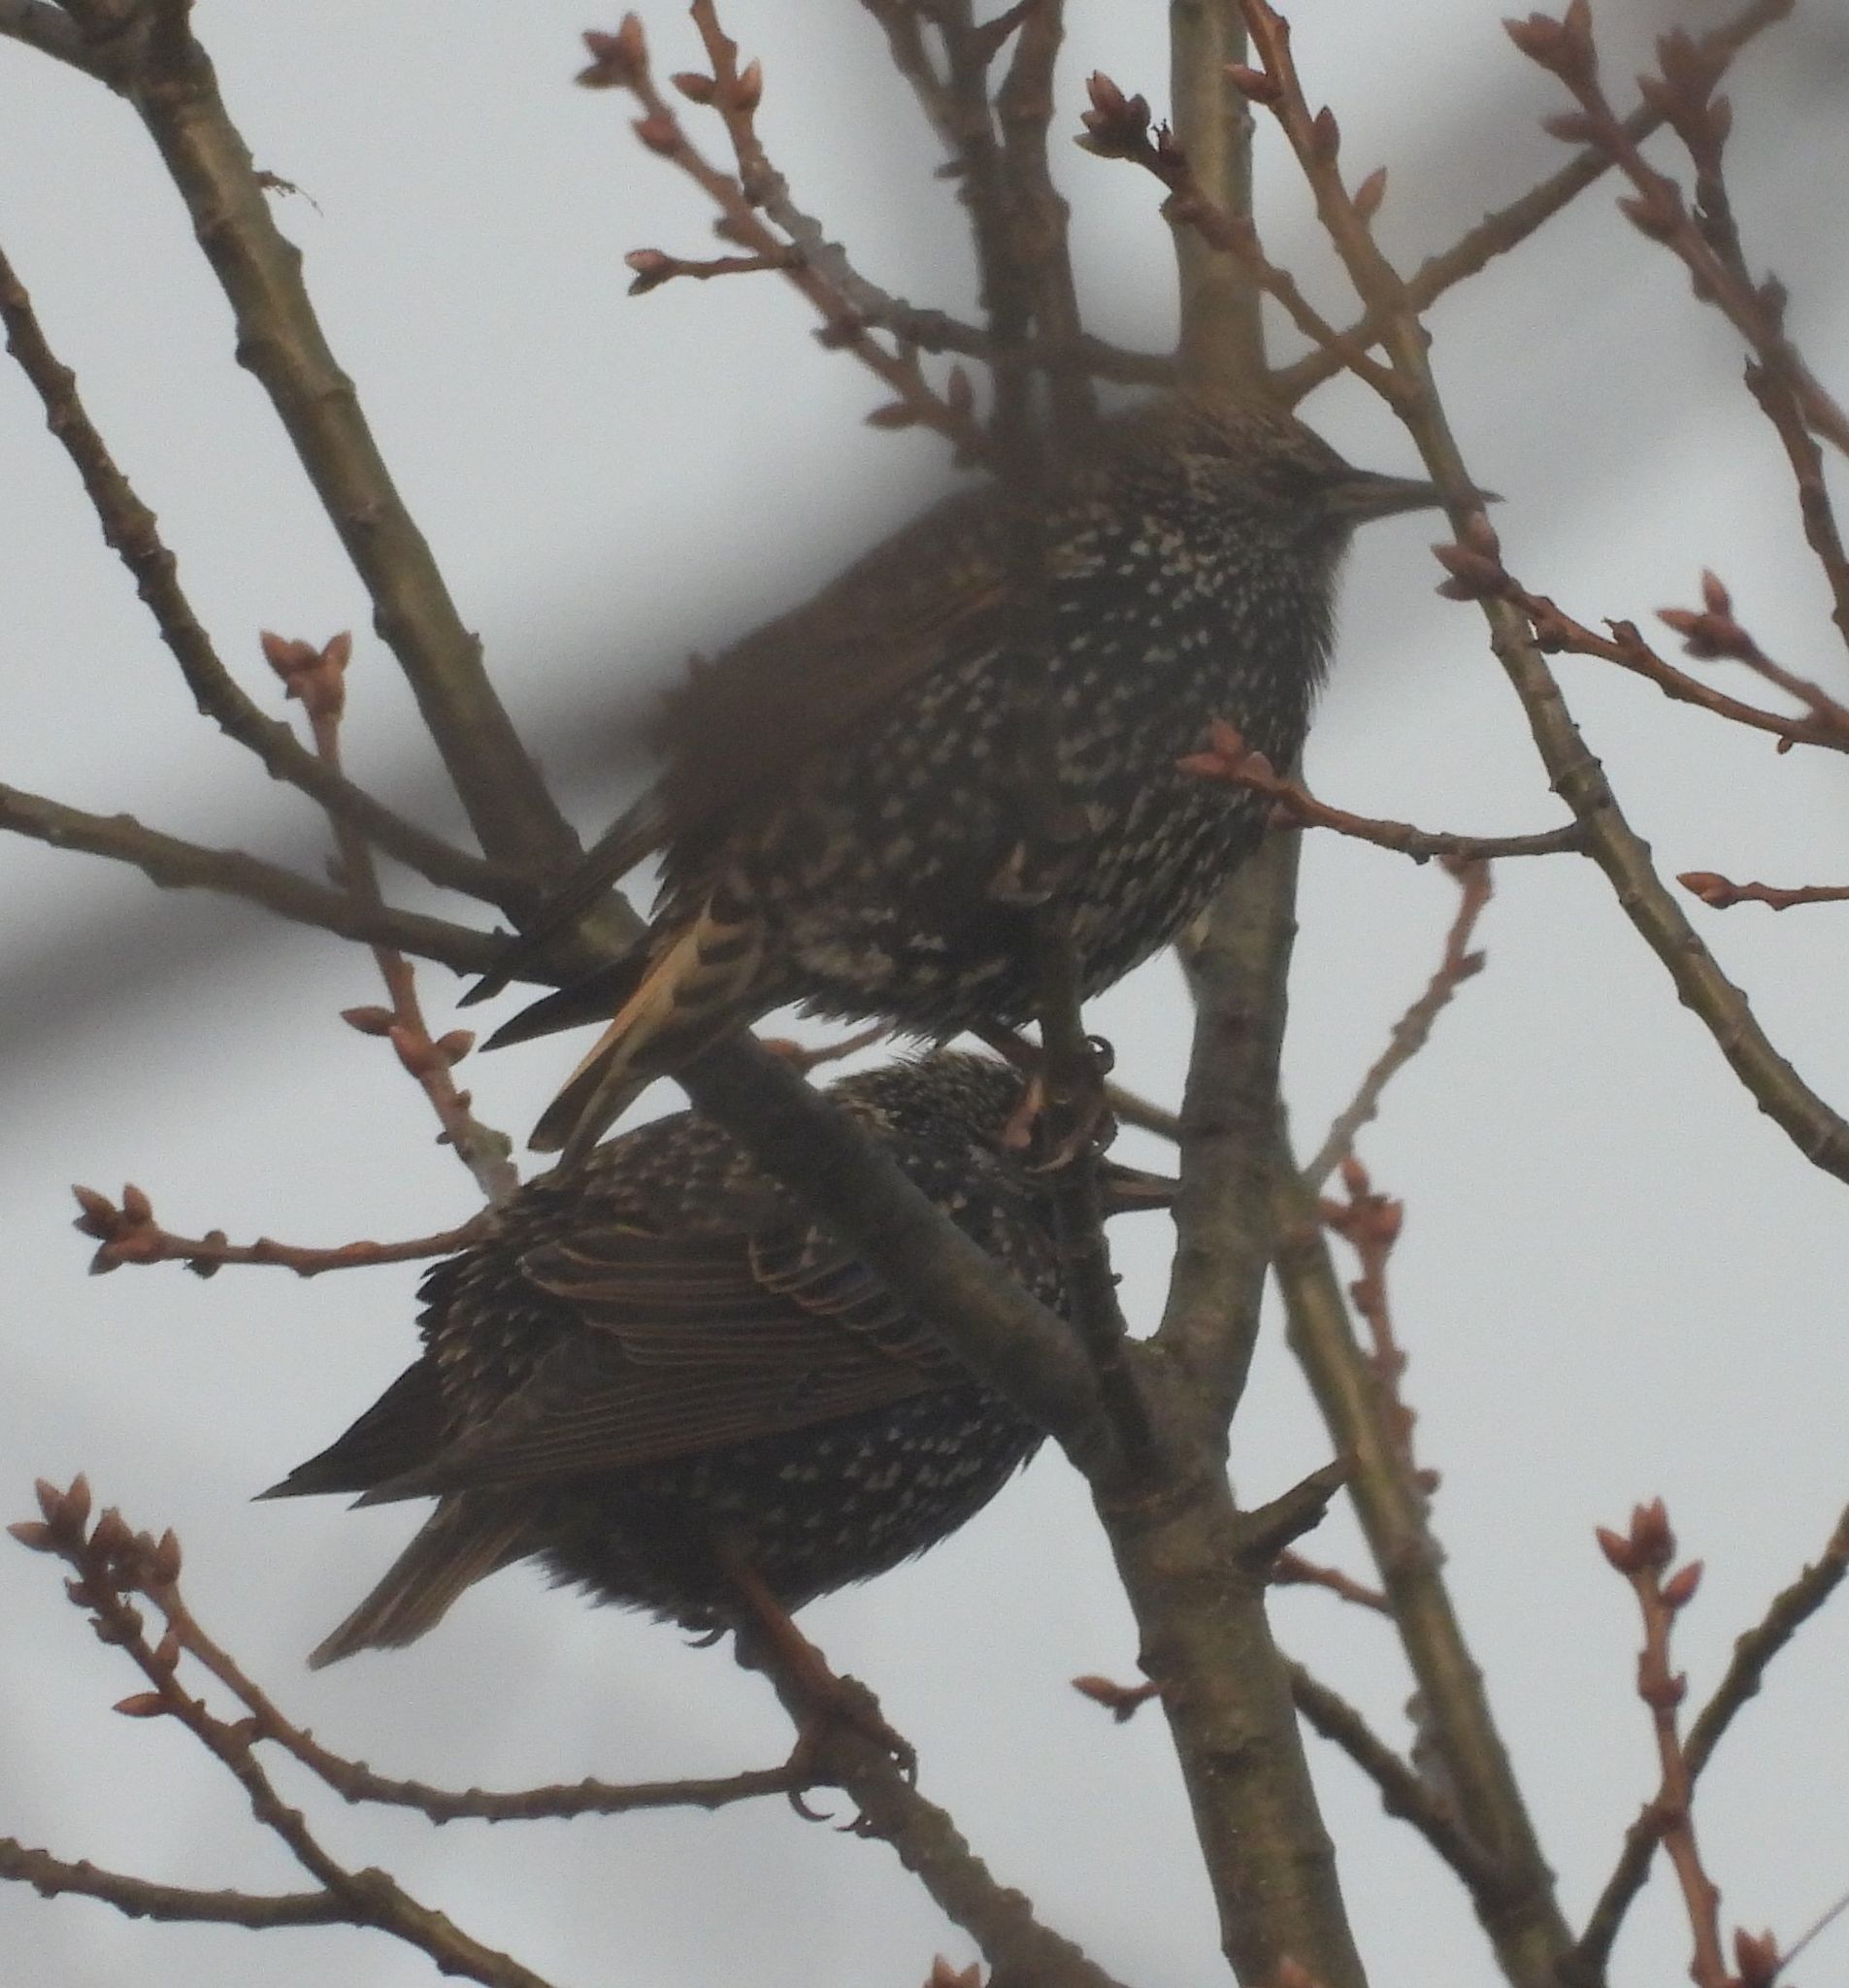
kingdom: Animalia
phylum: Chordata
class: Aves
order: Passeriformes
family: Sturnidae
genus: Sturnus
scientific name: Sturnus vulgaris
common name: Common starling
